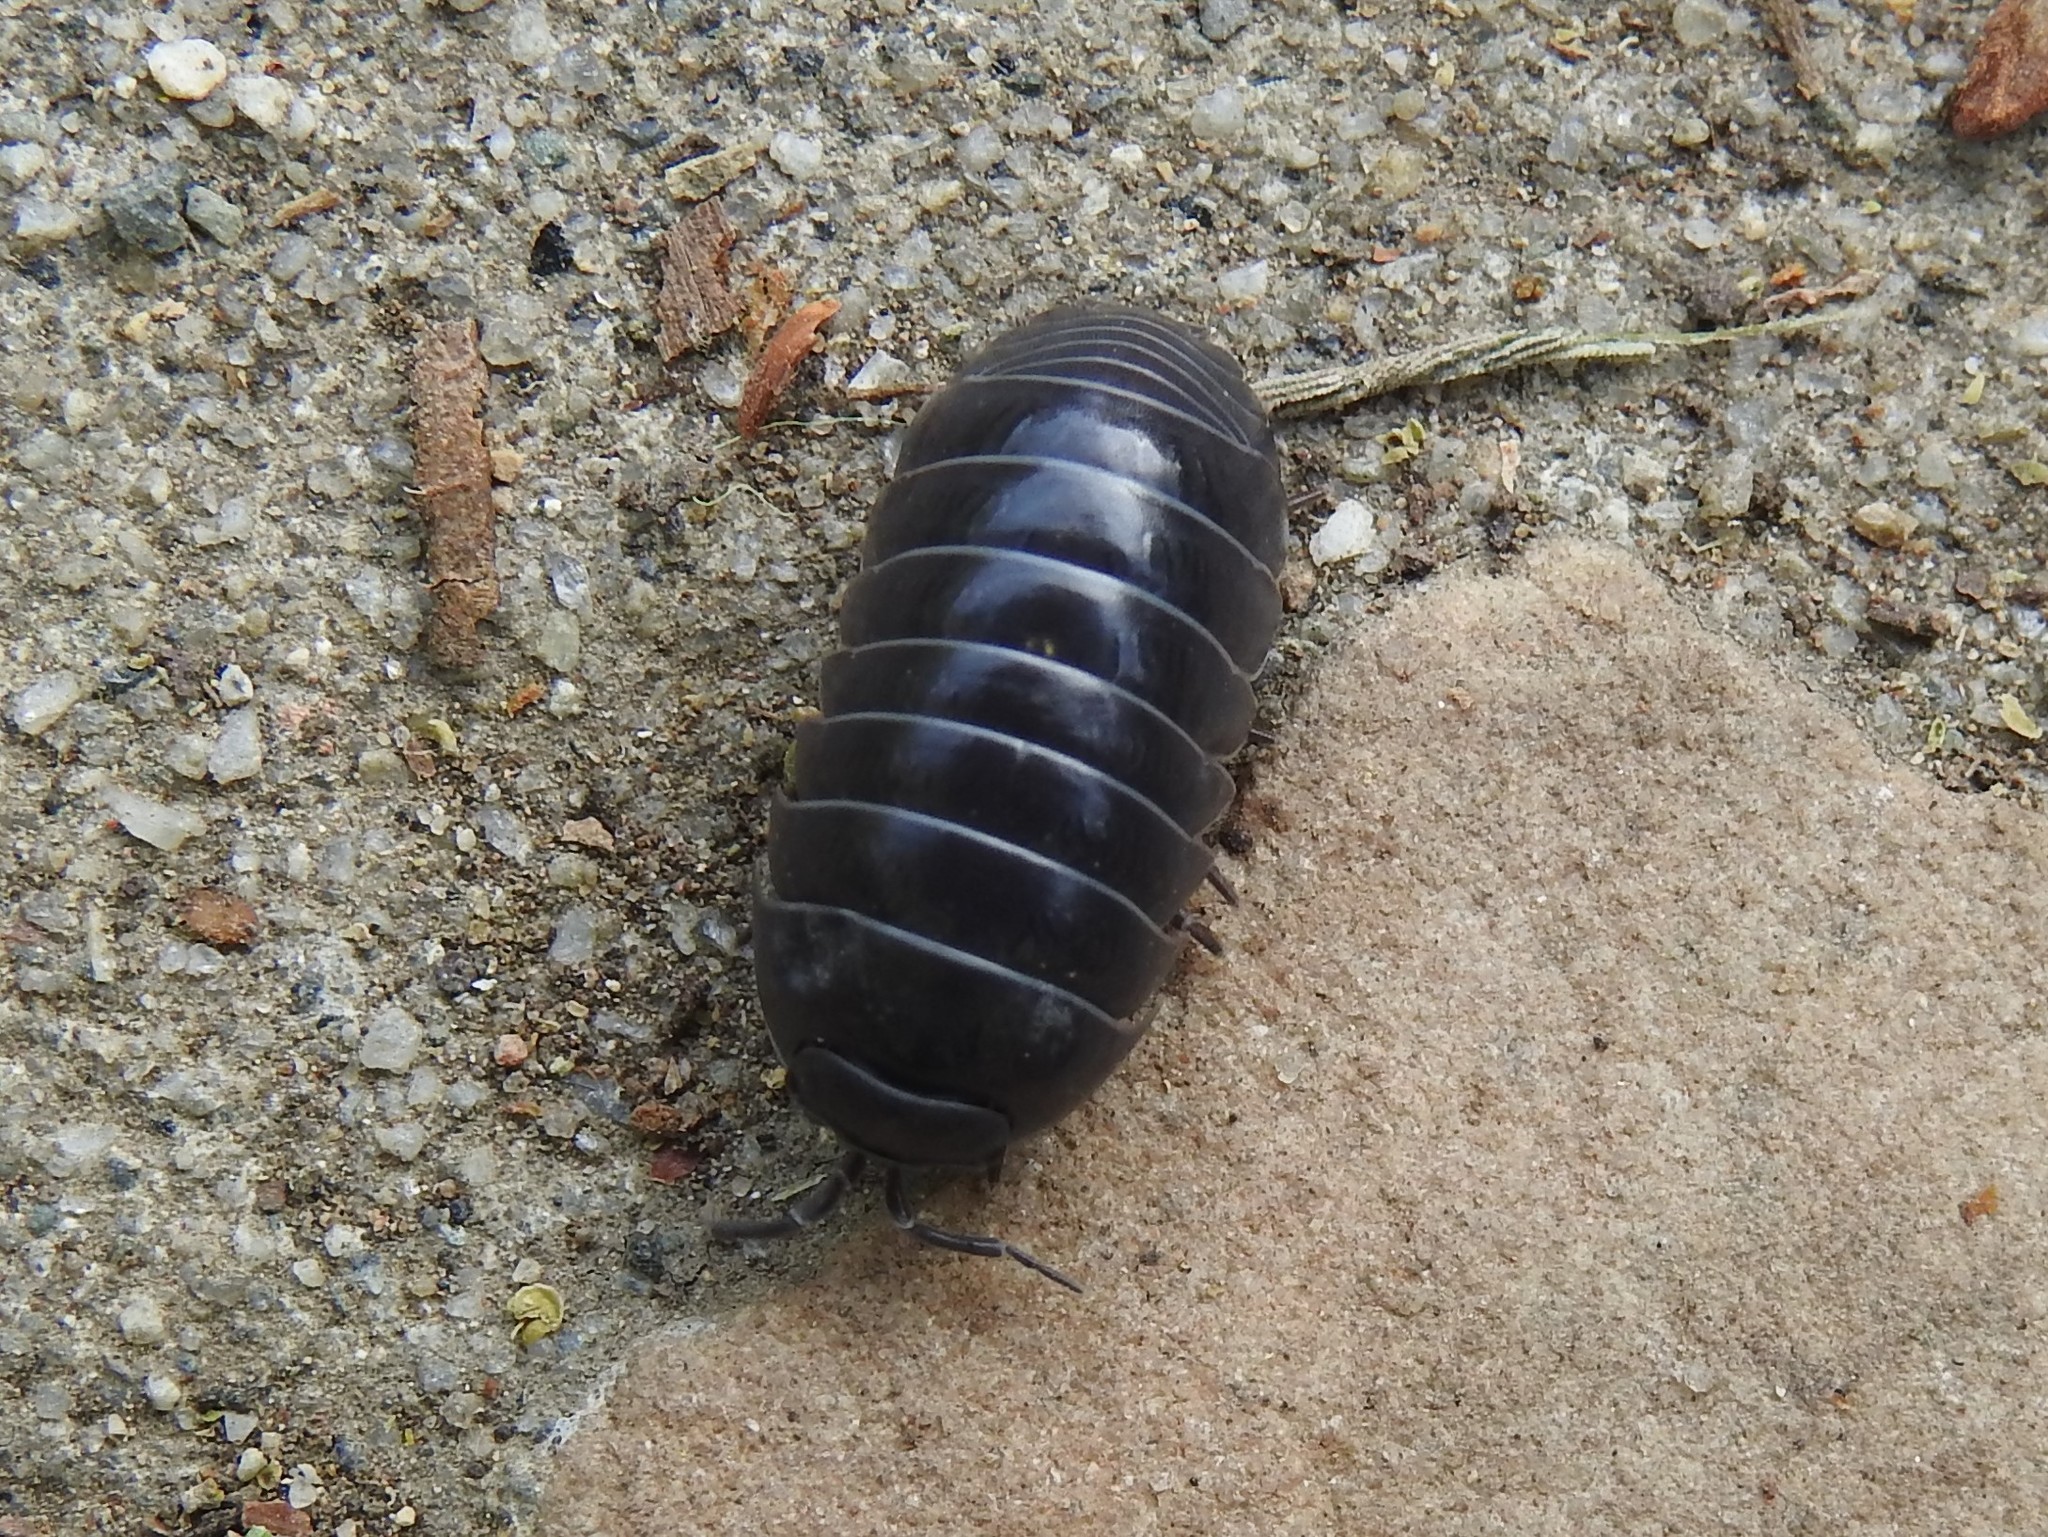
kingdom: Animalia
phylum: Arthropoda
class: Malacostraca
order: Isopoda
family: Armadillidiidae
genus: Armadillidium
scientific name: Armadillidium vulgare
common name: Common pill woodlouse
